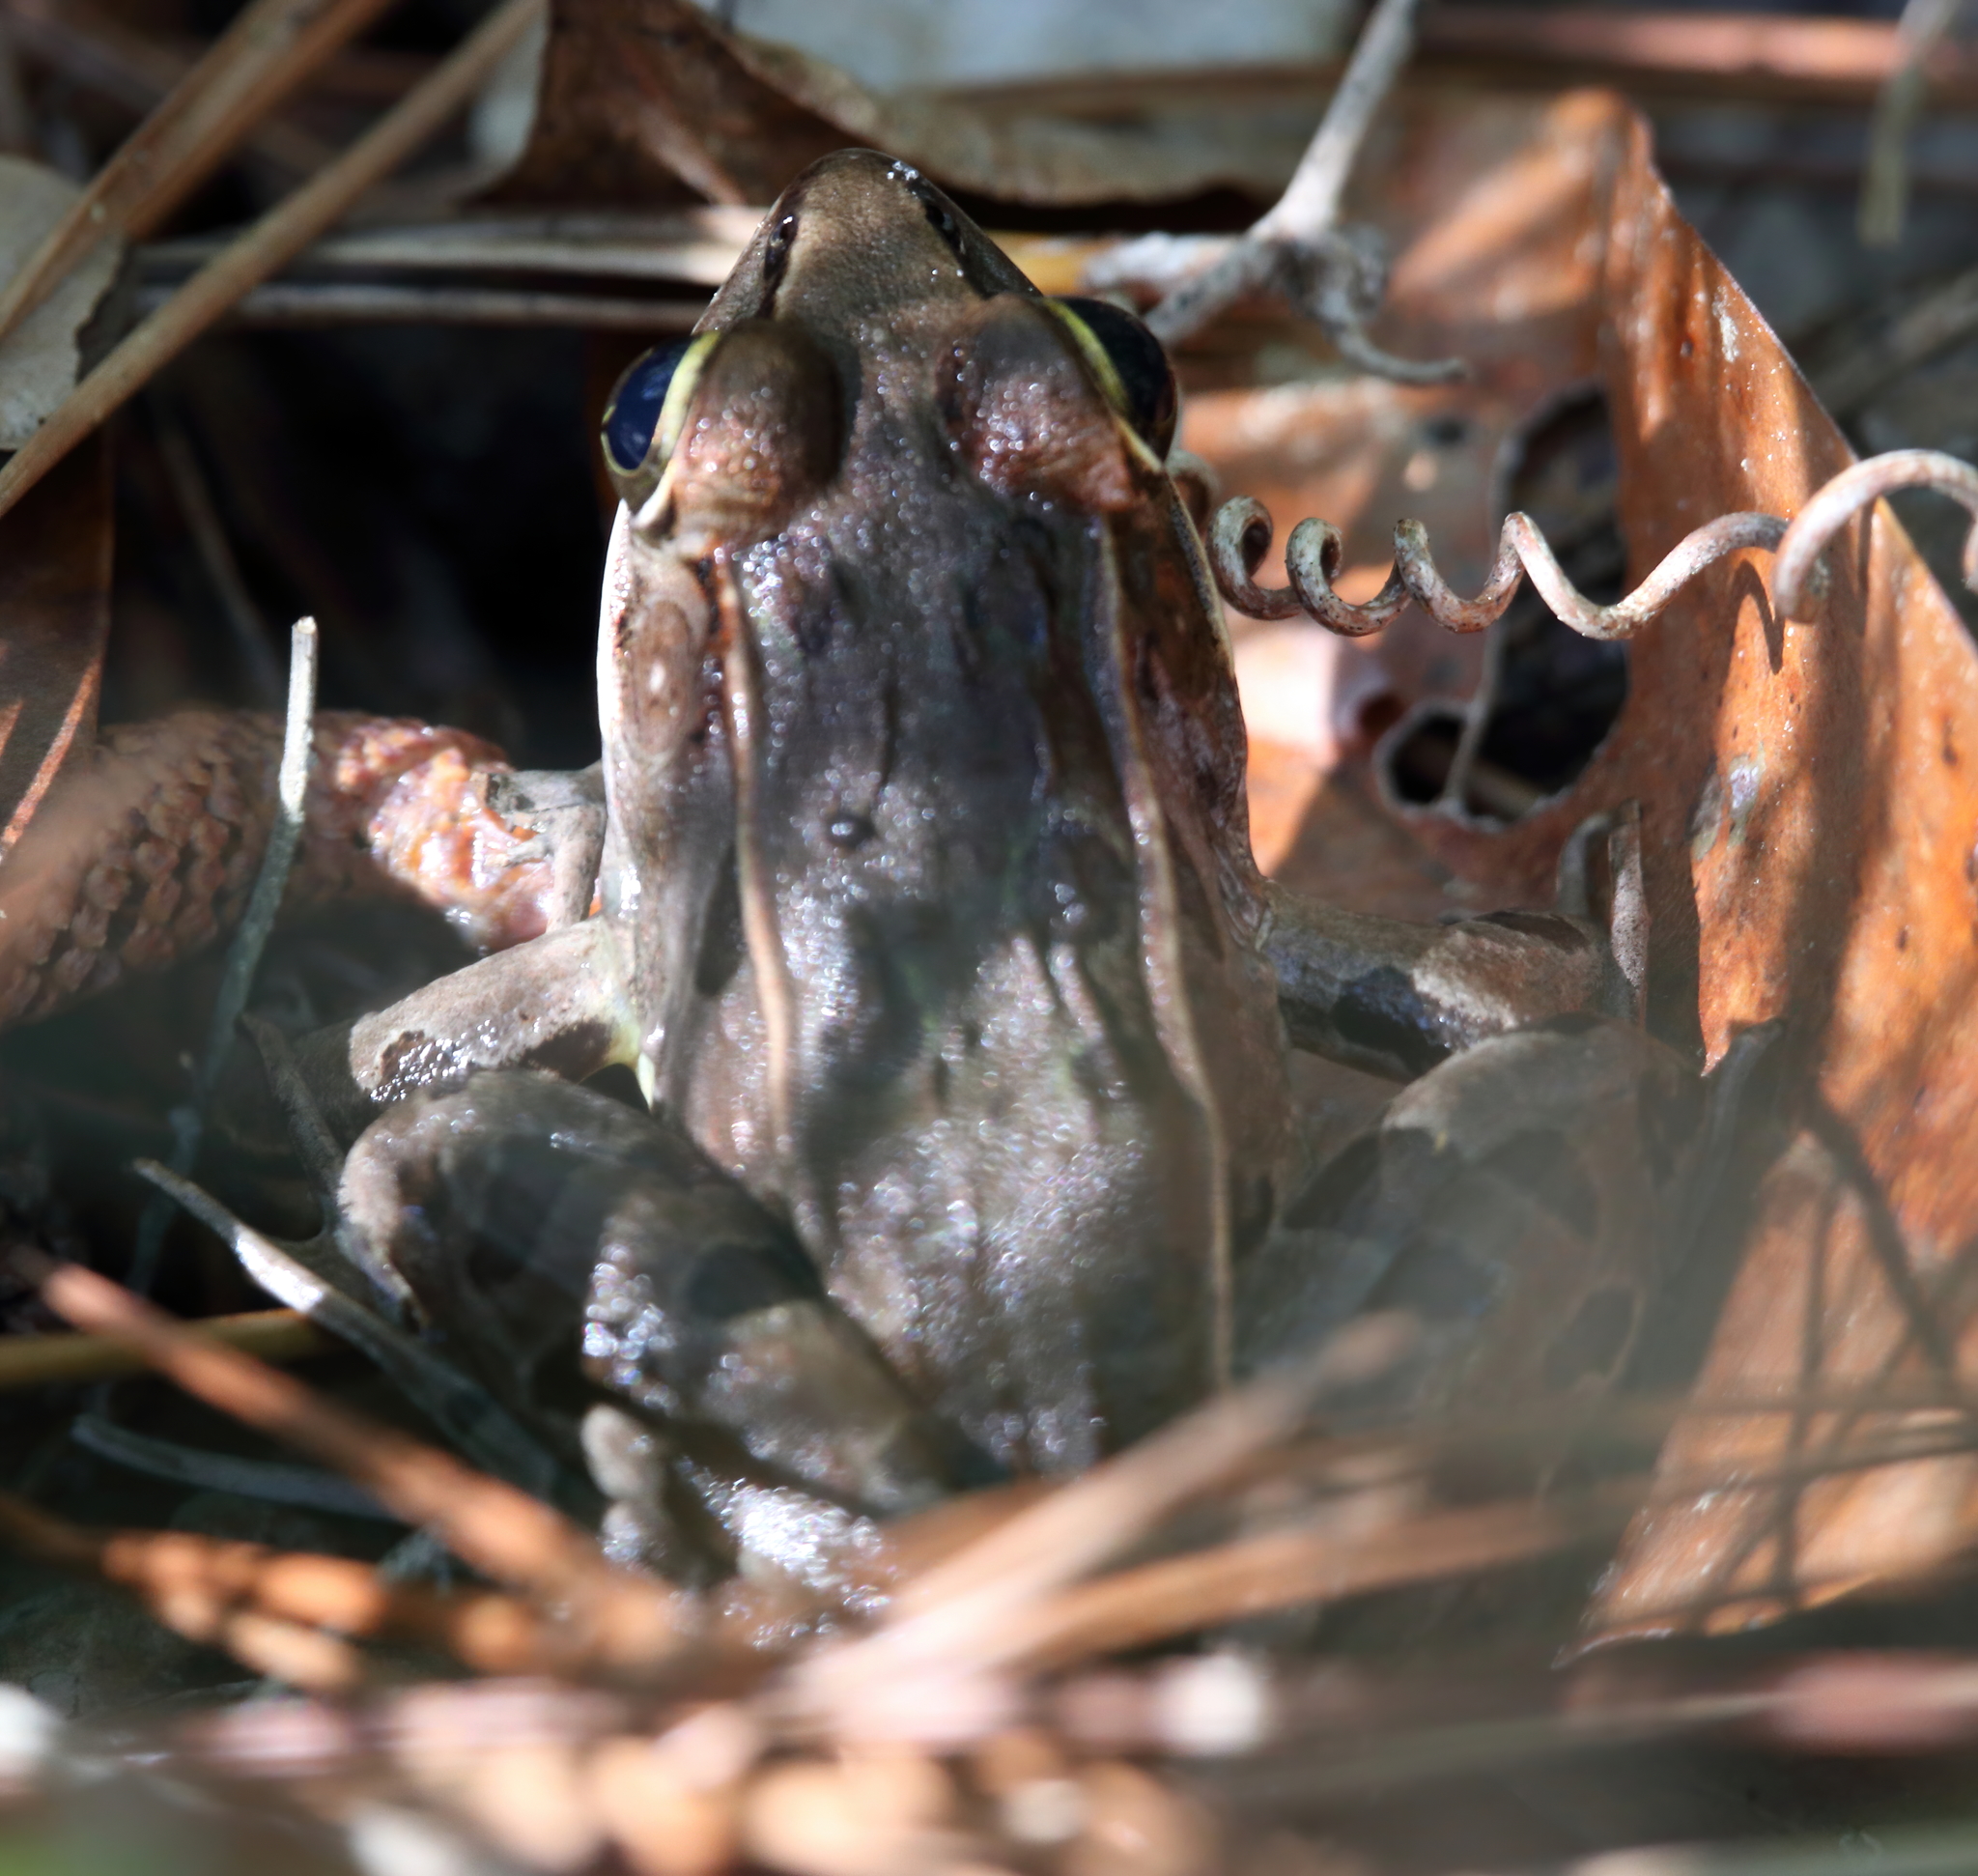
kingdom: Animalia
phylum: Chordata
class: Amphibia
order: Anura
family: Ranidae
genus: Lithobates
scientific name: Lithobates sphenocephalus
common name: Southern leopard frog
